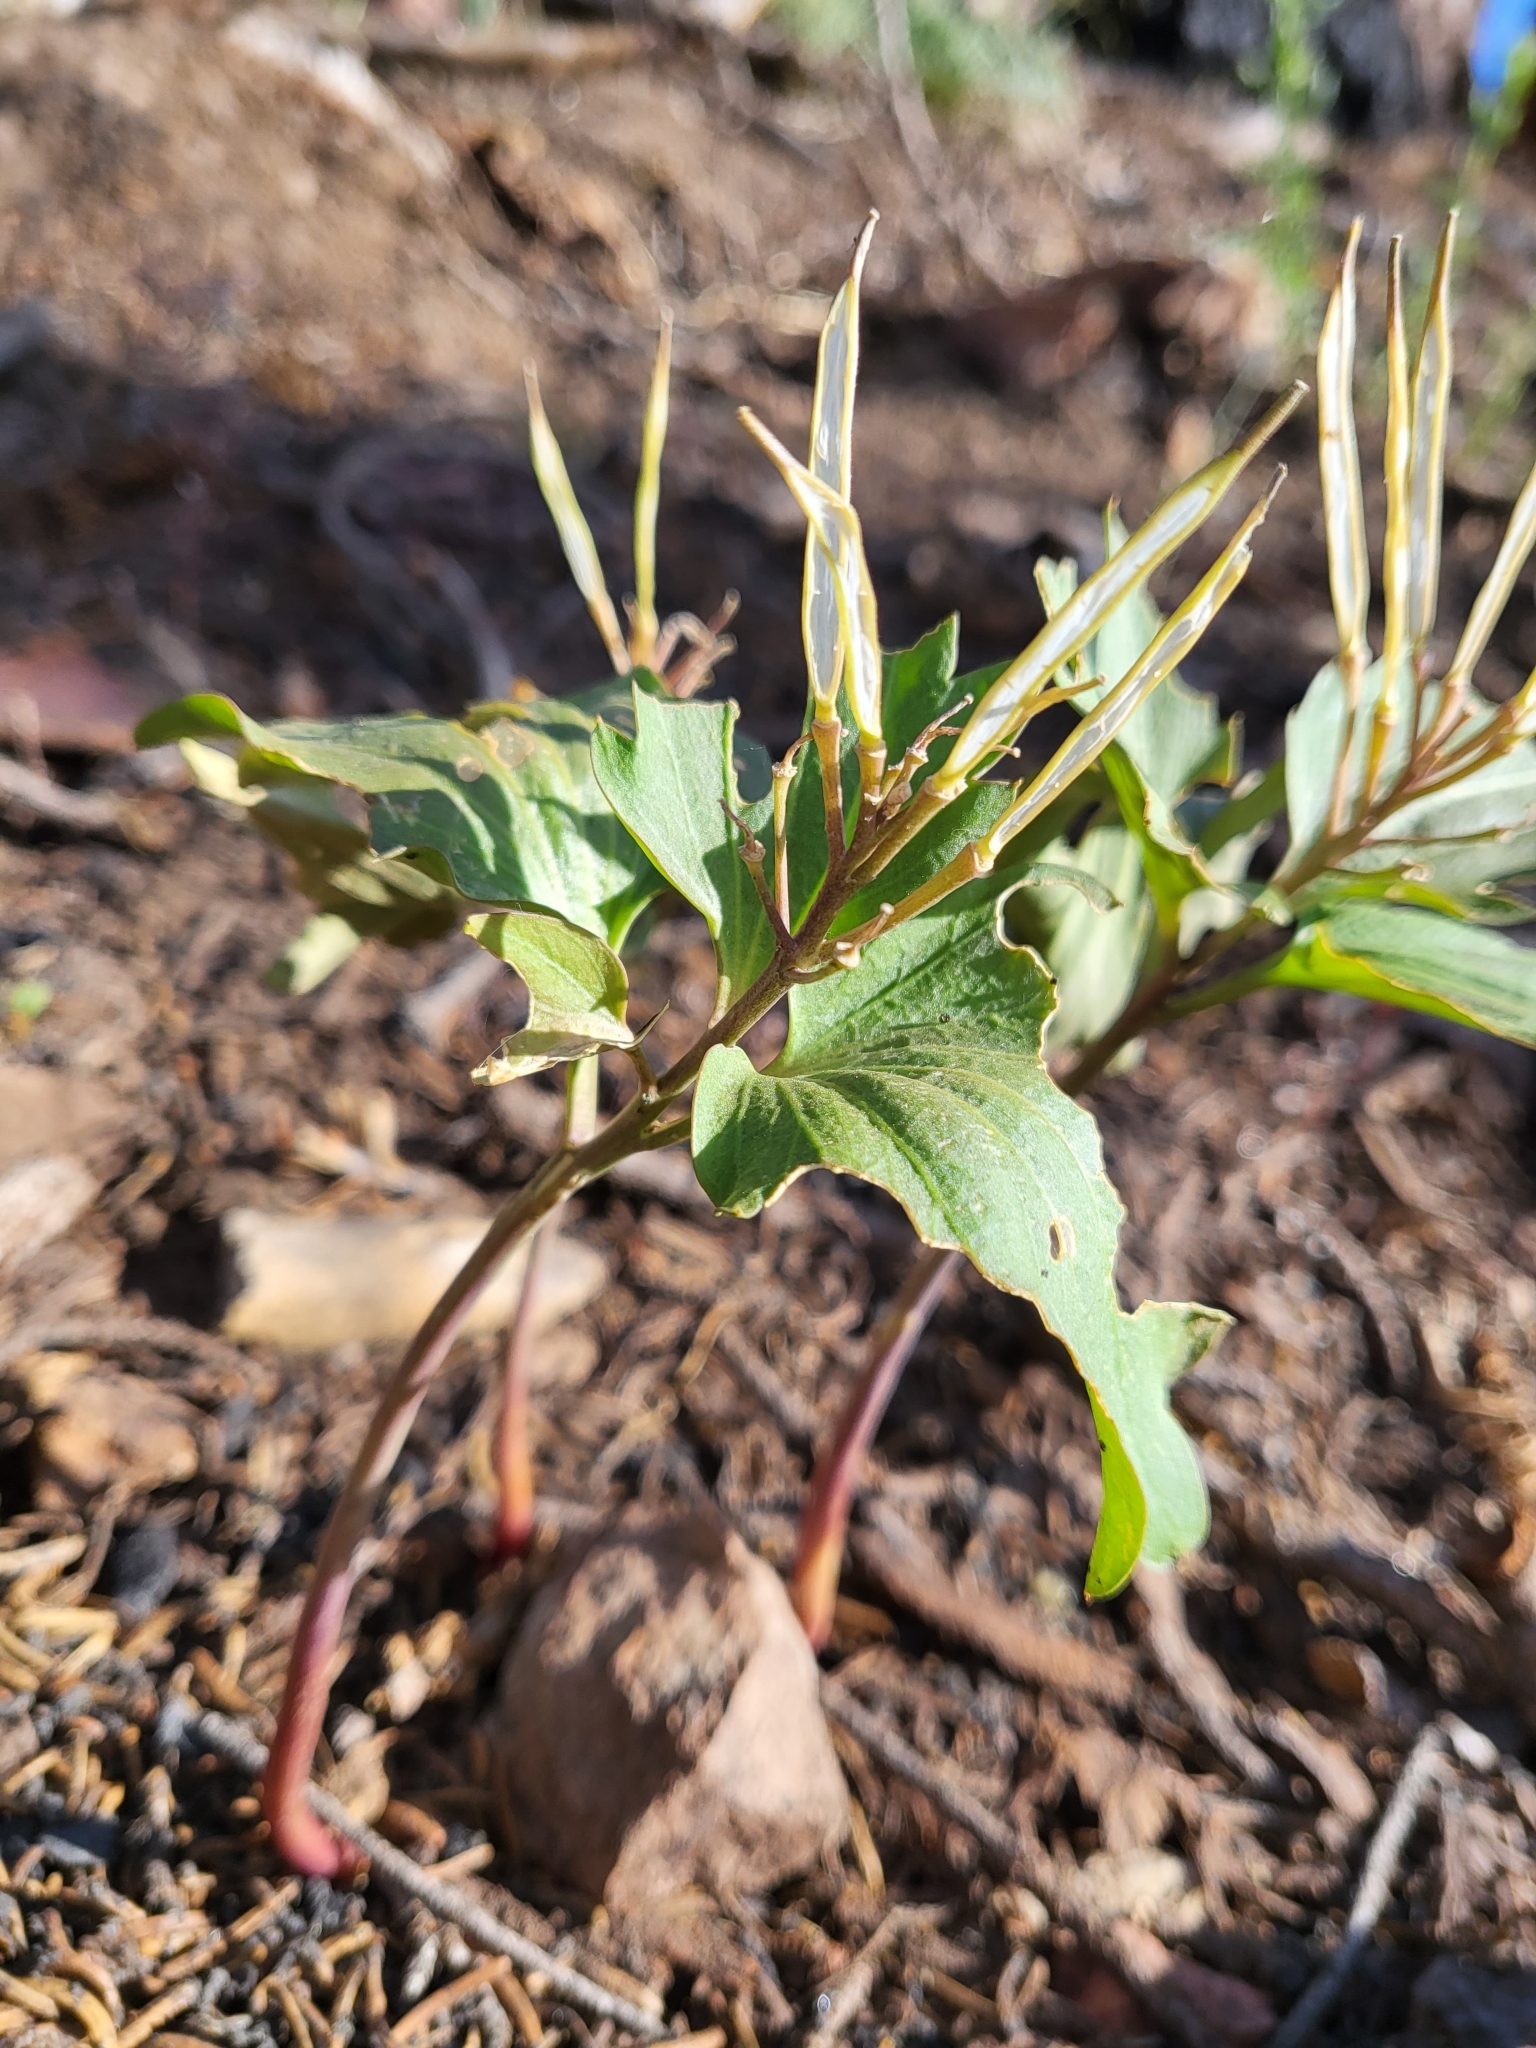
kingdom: Plantae
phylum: Tracheophyta
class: Magnoliopsida
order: Malpighiales
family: Violaceae
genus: Viola
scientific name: Viola lobata
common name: Pine violet
